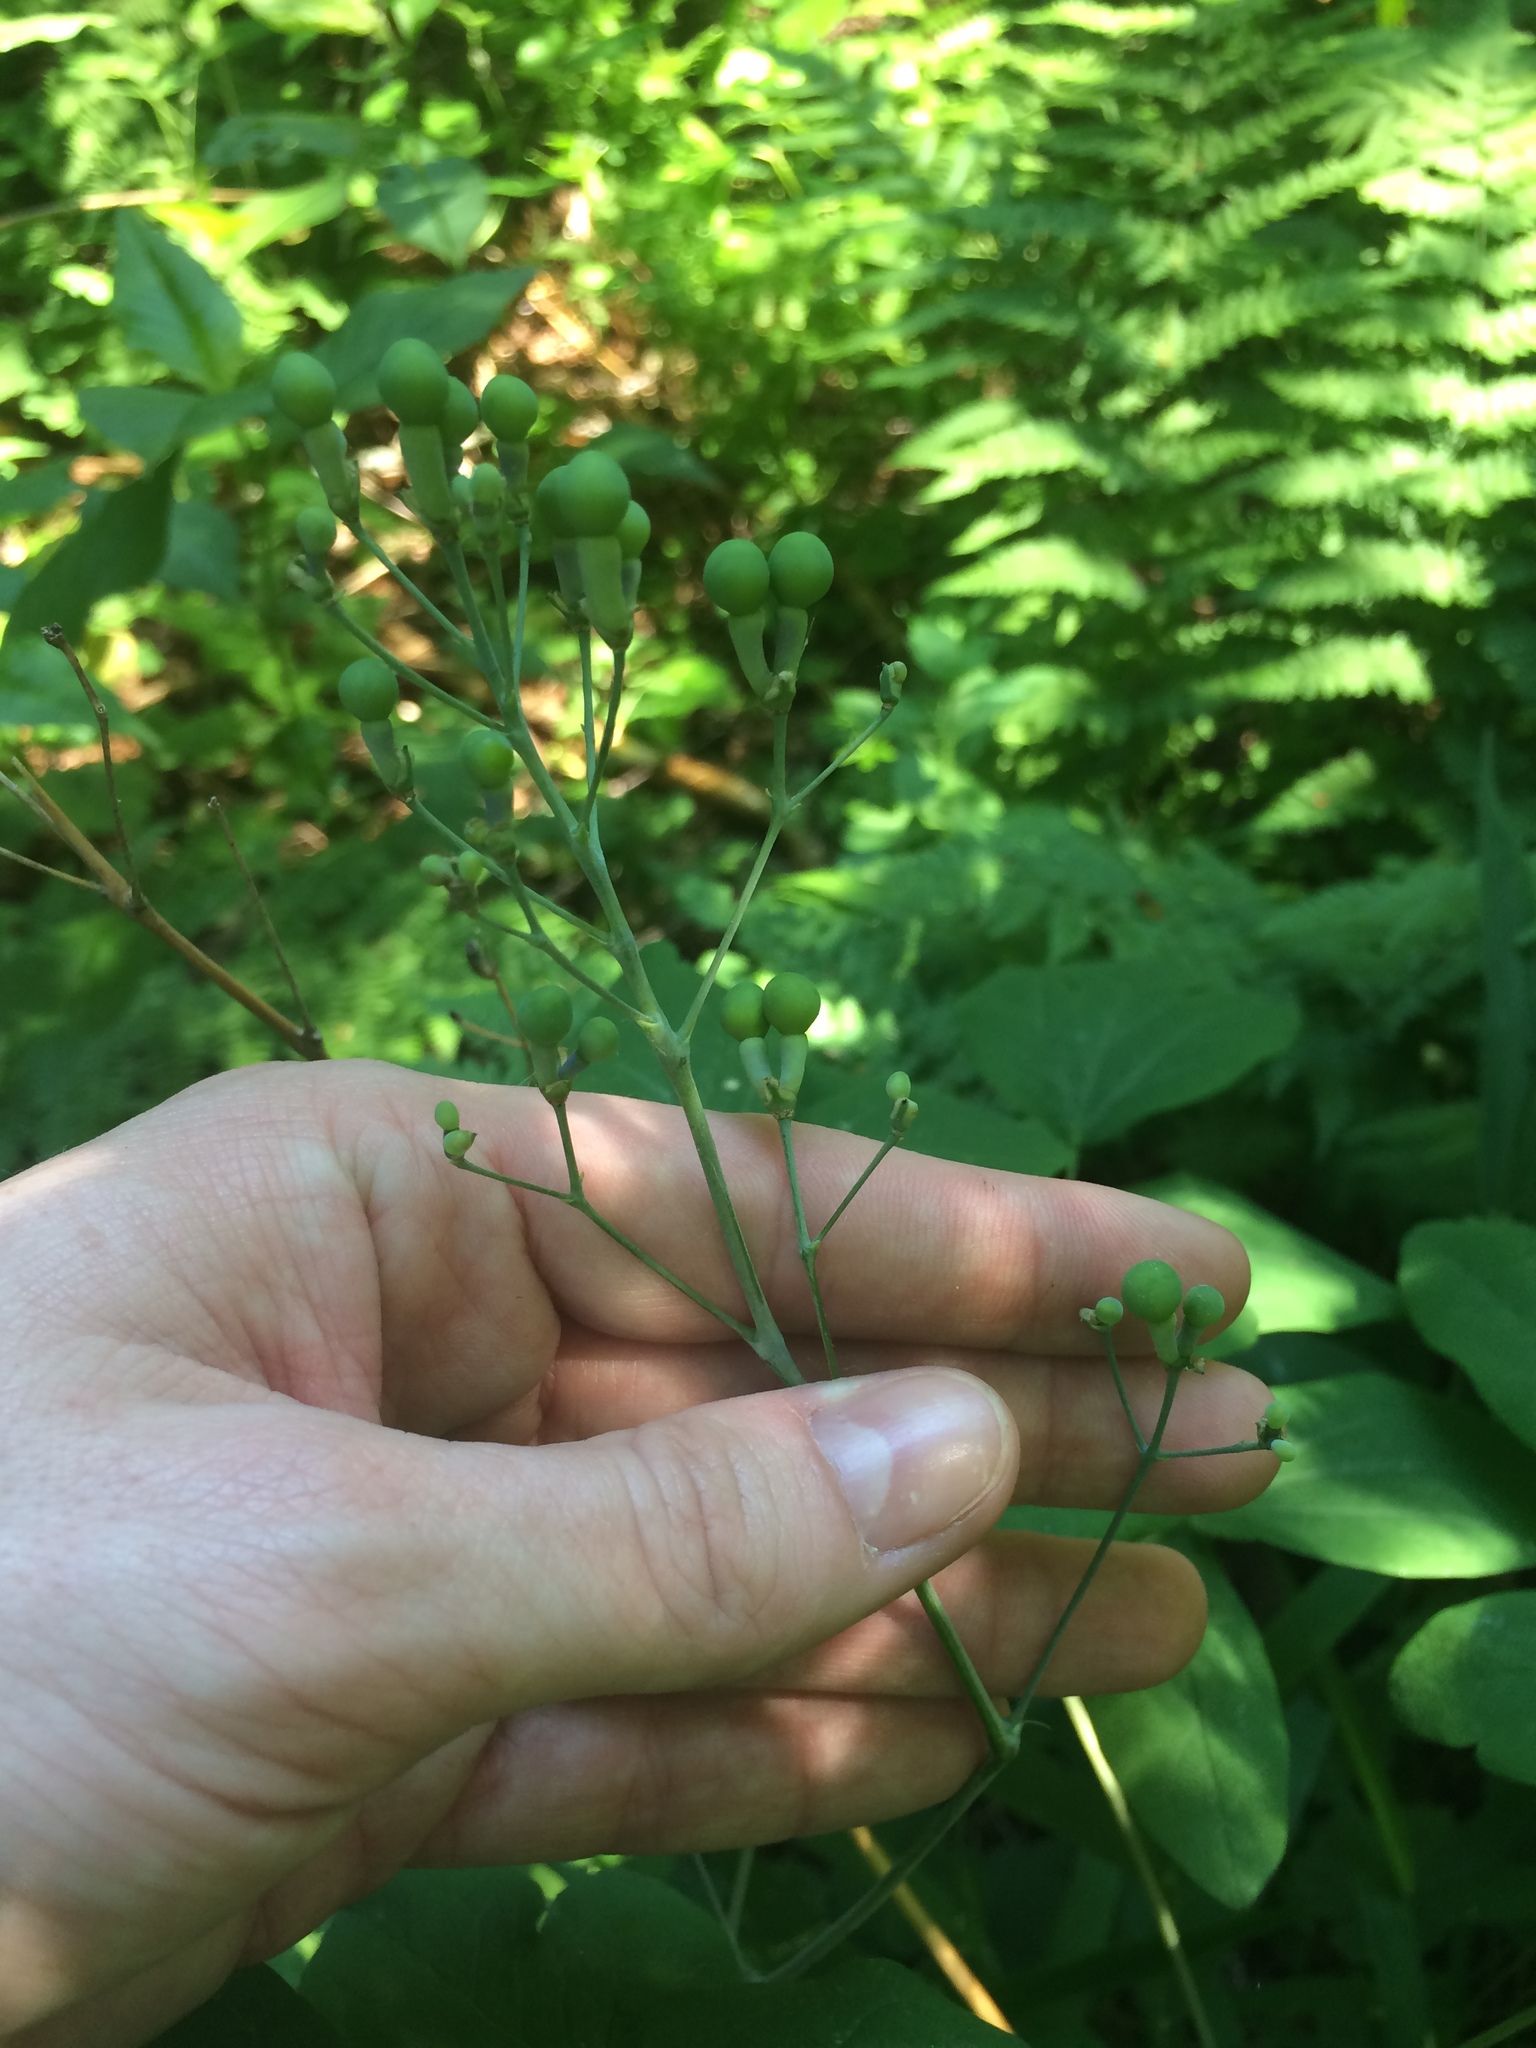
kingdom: Plantae
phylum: Tracheophyta
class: Magnoliopsida
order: Ranunculales
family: Berberidaceae
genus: Caulophyllum
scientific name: Caulophyllum thalictroides
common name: Blue cohosh
